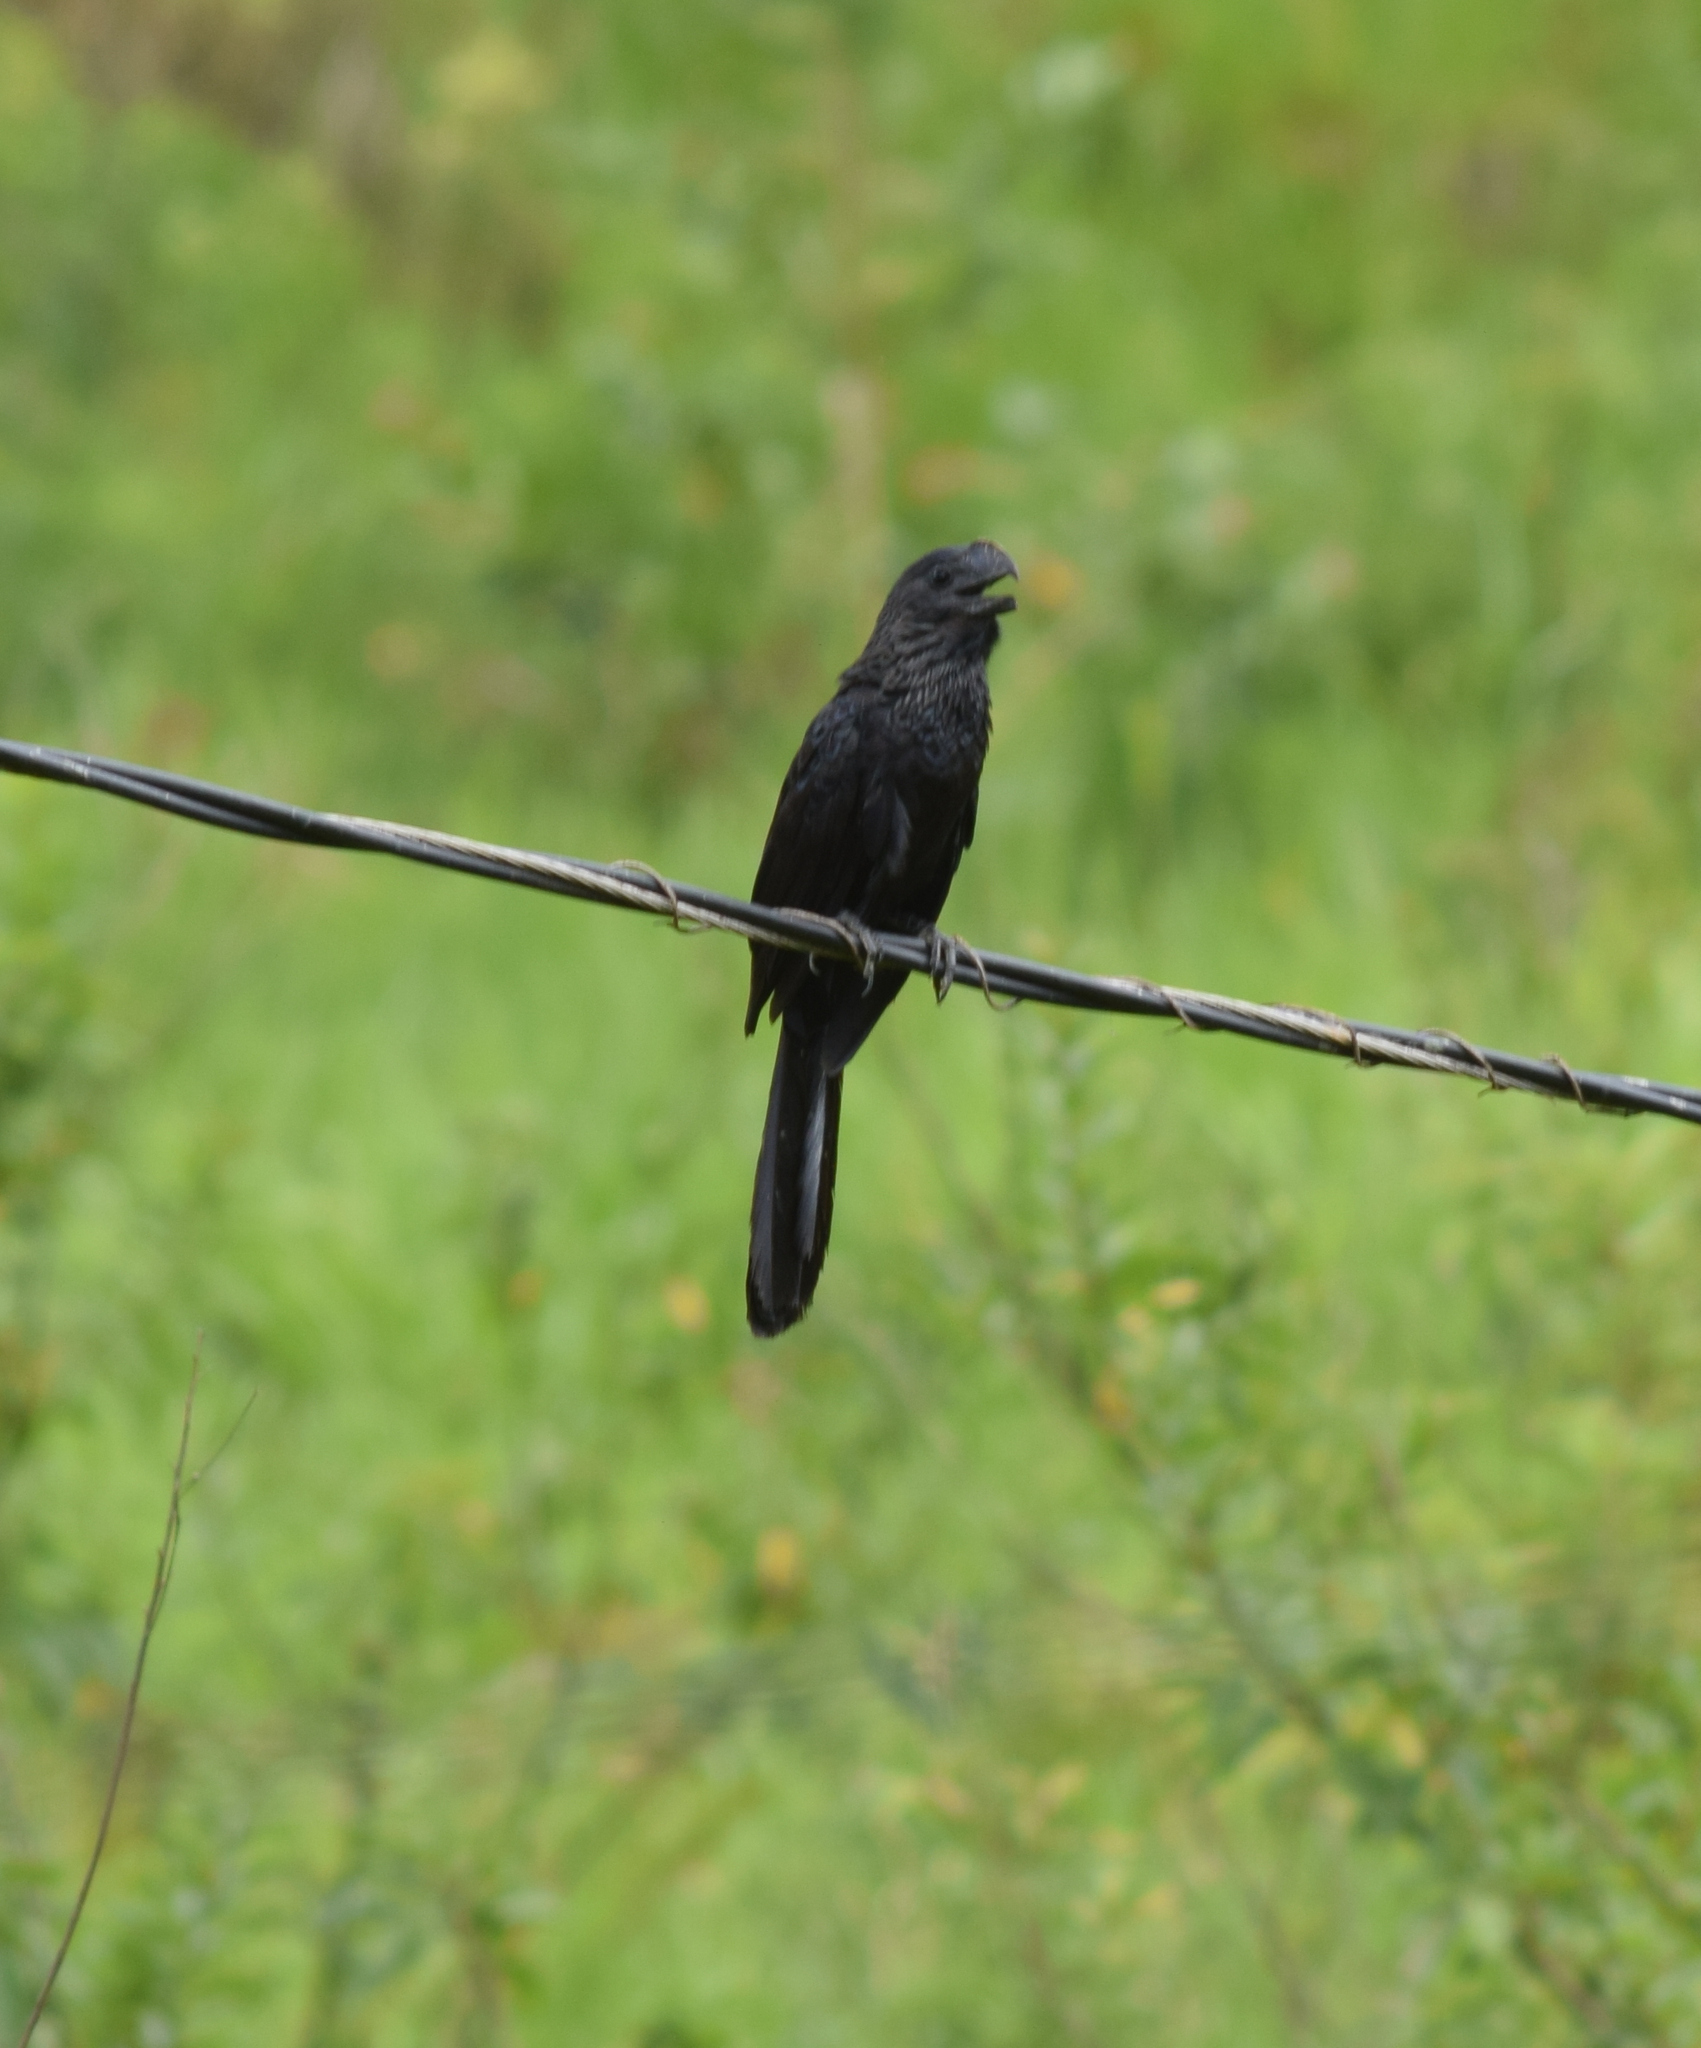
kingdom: Animalia
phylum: Chordata
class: Aves
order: Cuculiformes
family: Cuculidae
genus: Crotophaga
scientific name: Crotophaga ani
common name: Smooth-billed ani
